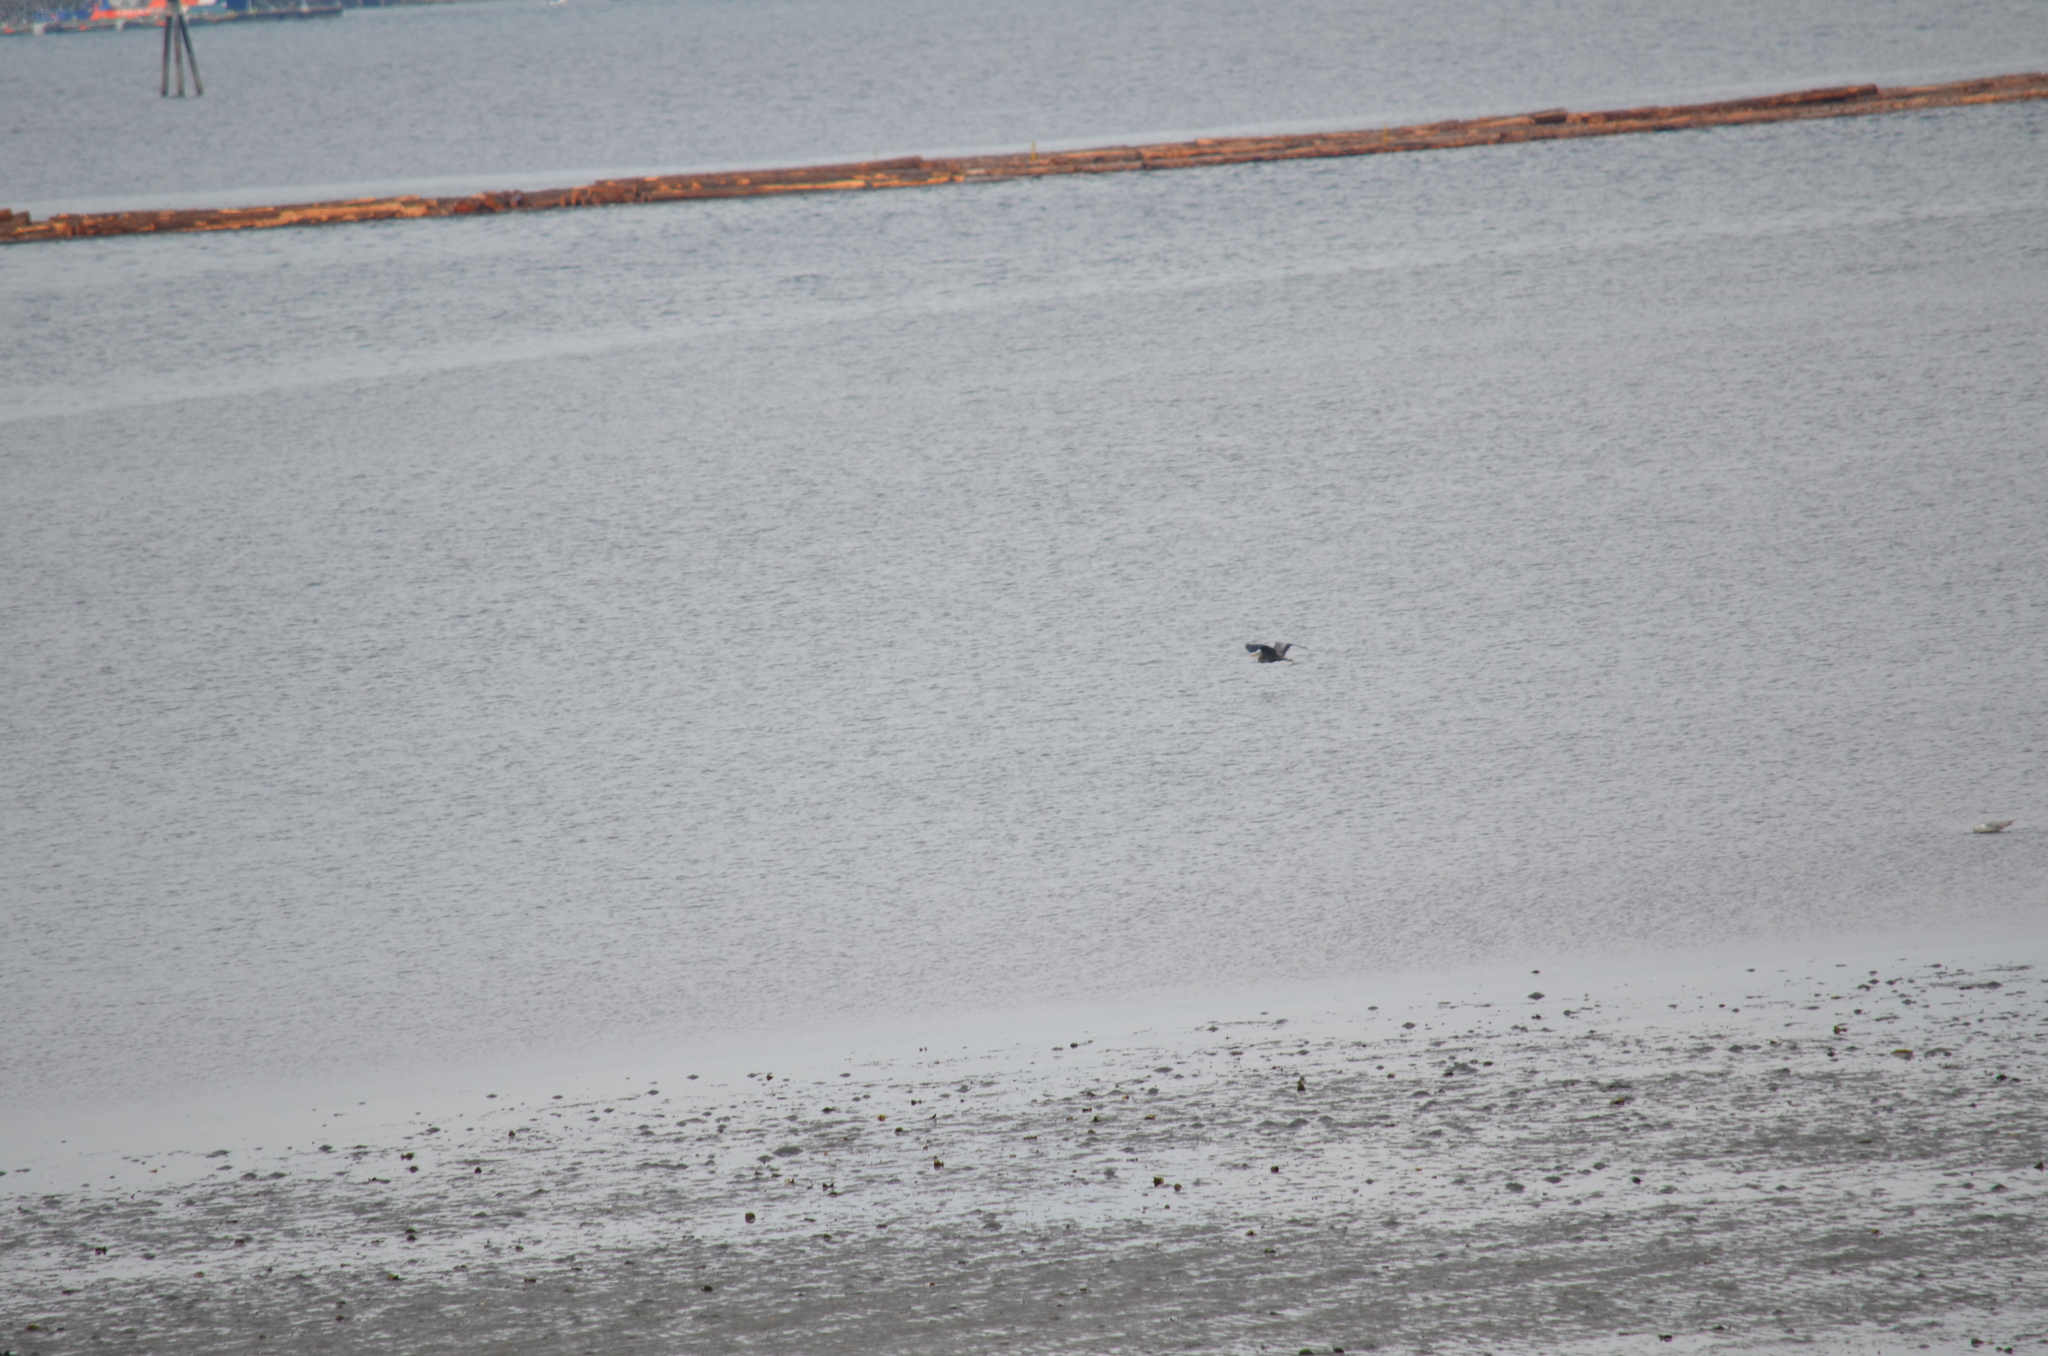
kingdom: Animalia
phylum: Chordata
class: Aves
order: Pelecaniformes
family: Ardeidae
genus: Ardea
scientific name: Ardea herodias
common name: Great blue heron
